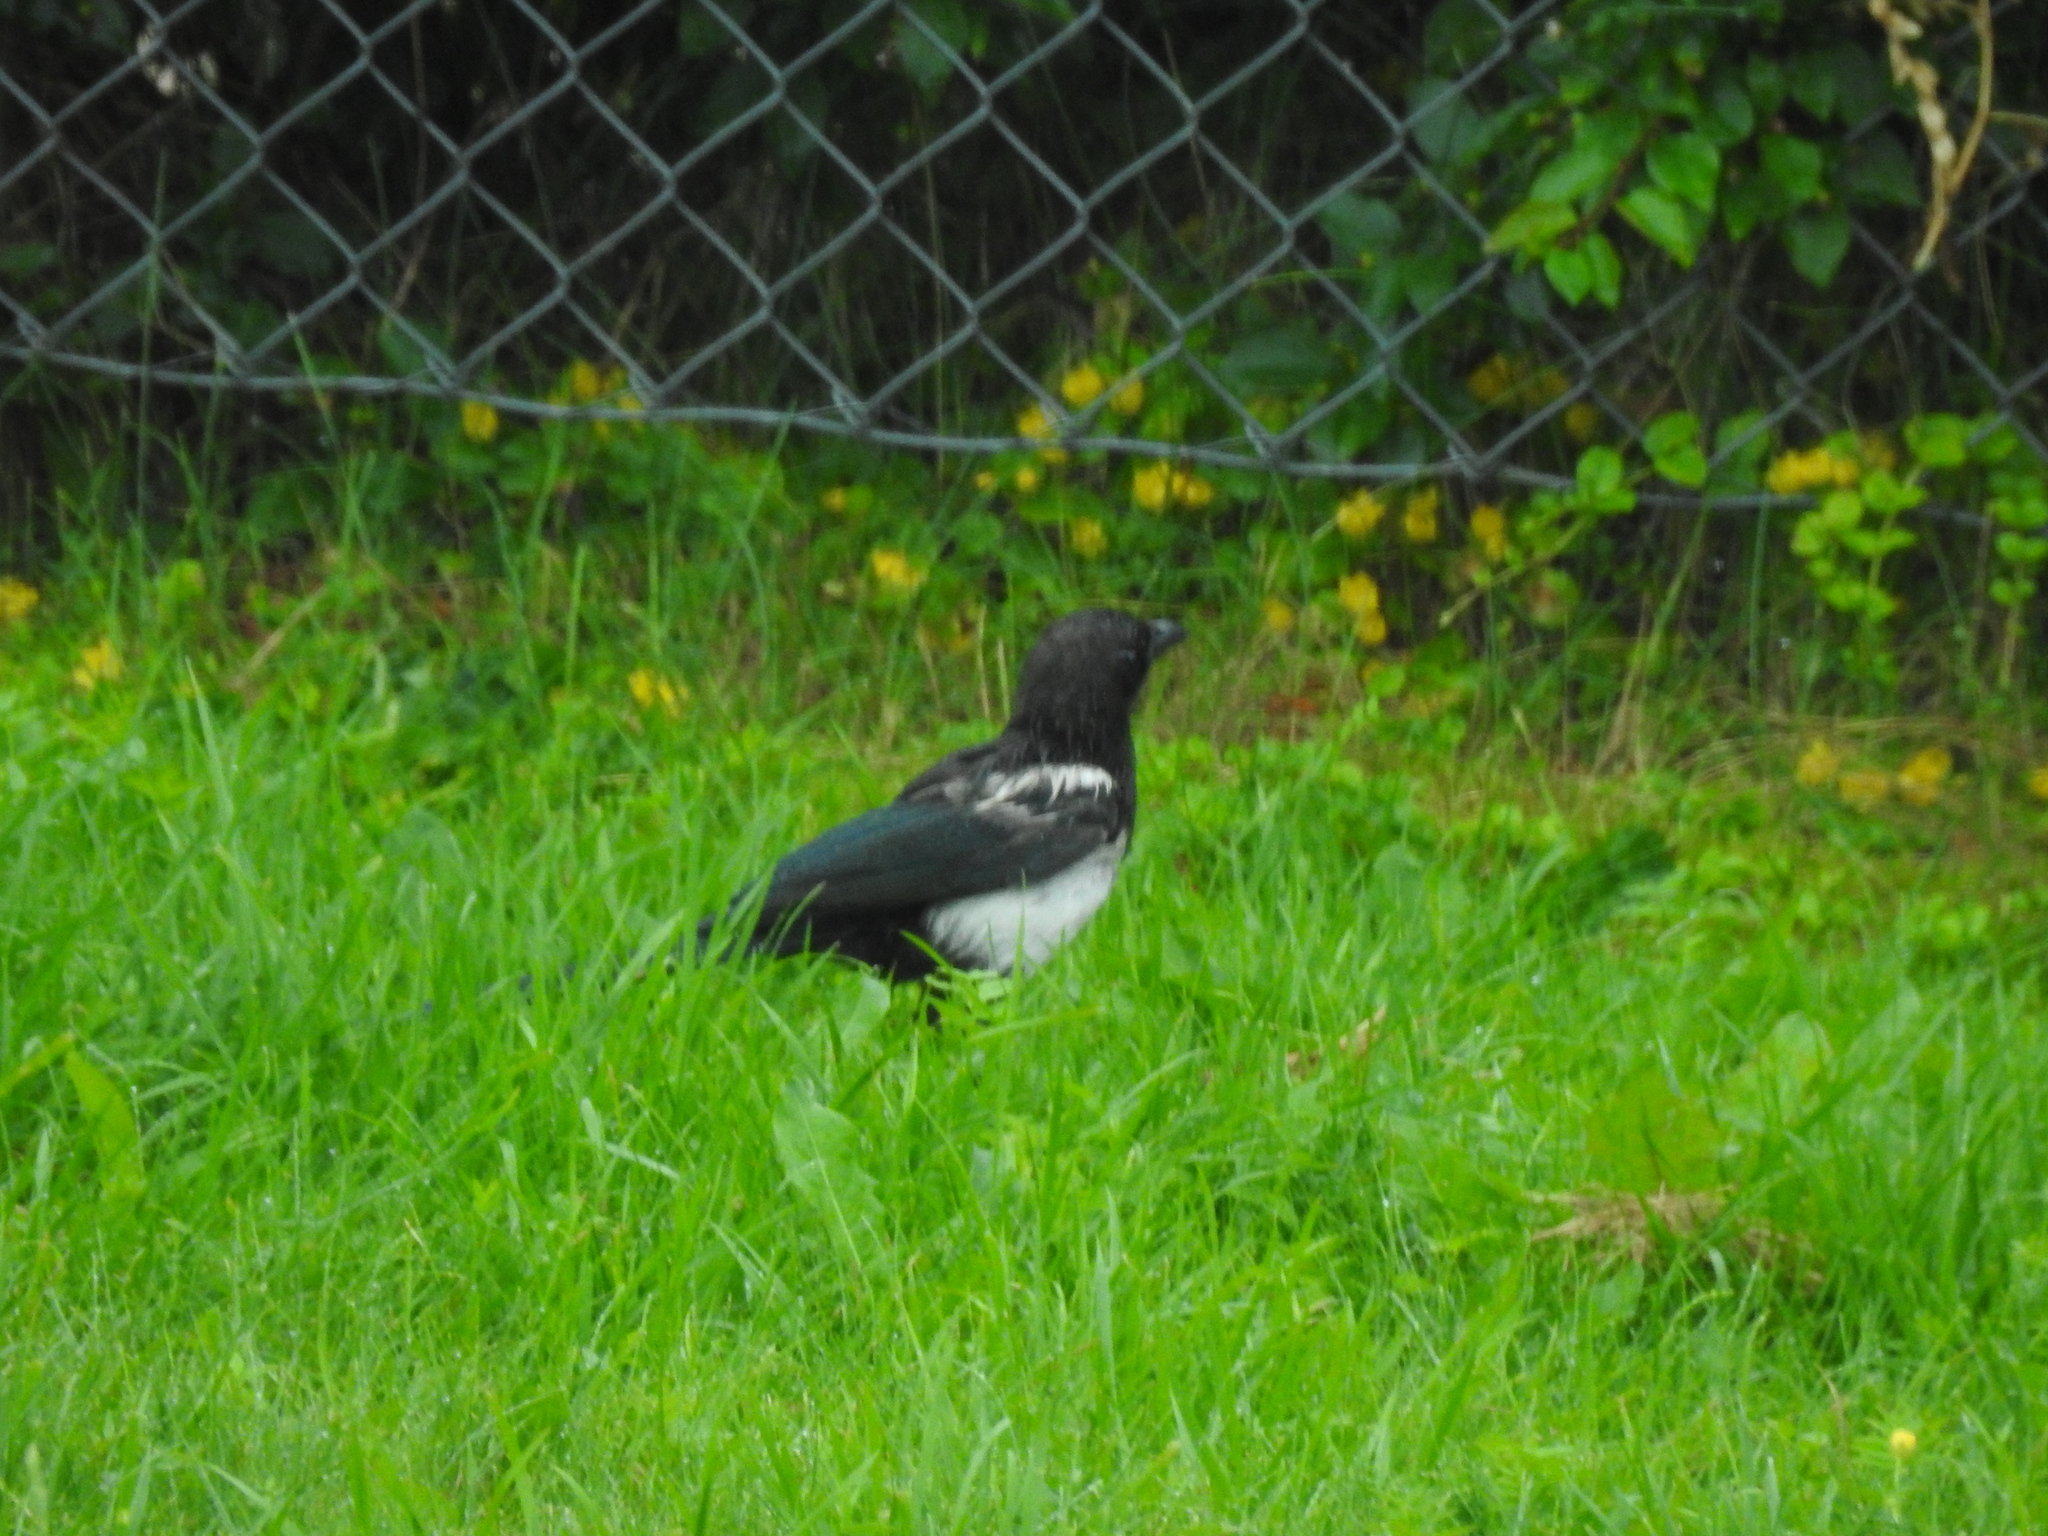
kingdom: Animalia
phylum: Chordata
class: Aves
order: Passeriformes
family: Corvidae
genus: Pica
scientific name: Pica pica
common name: Eurasian magpie
